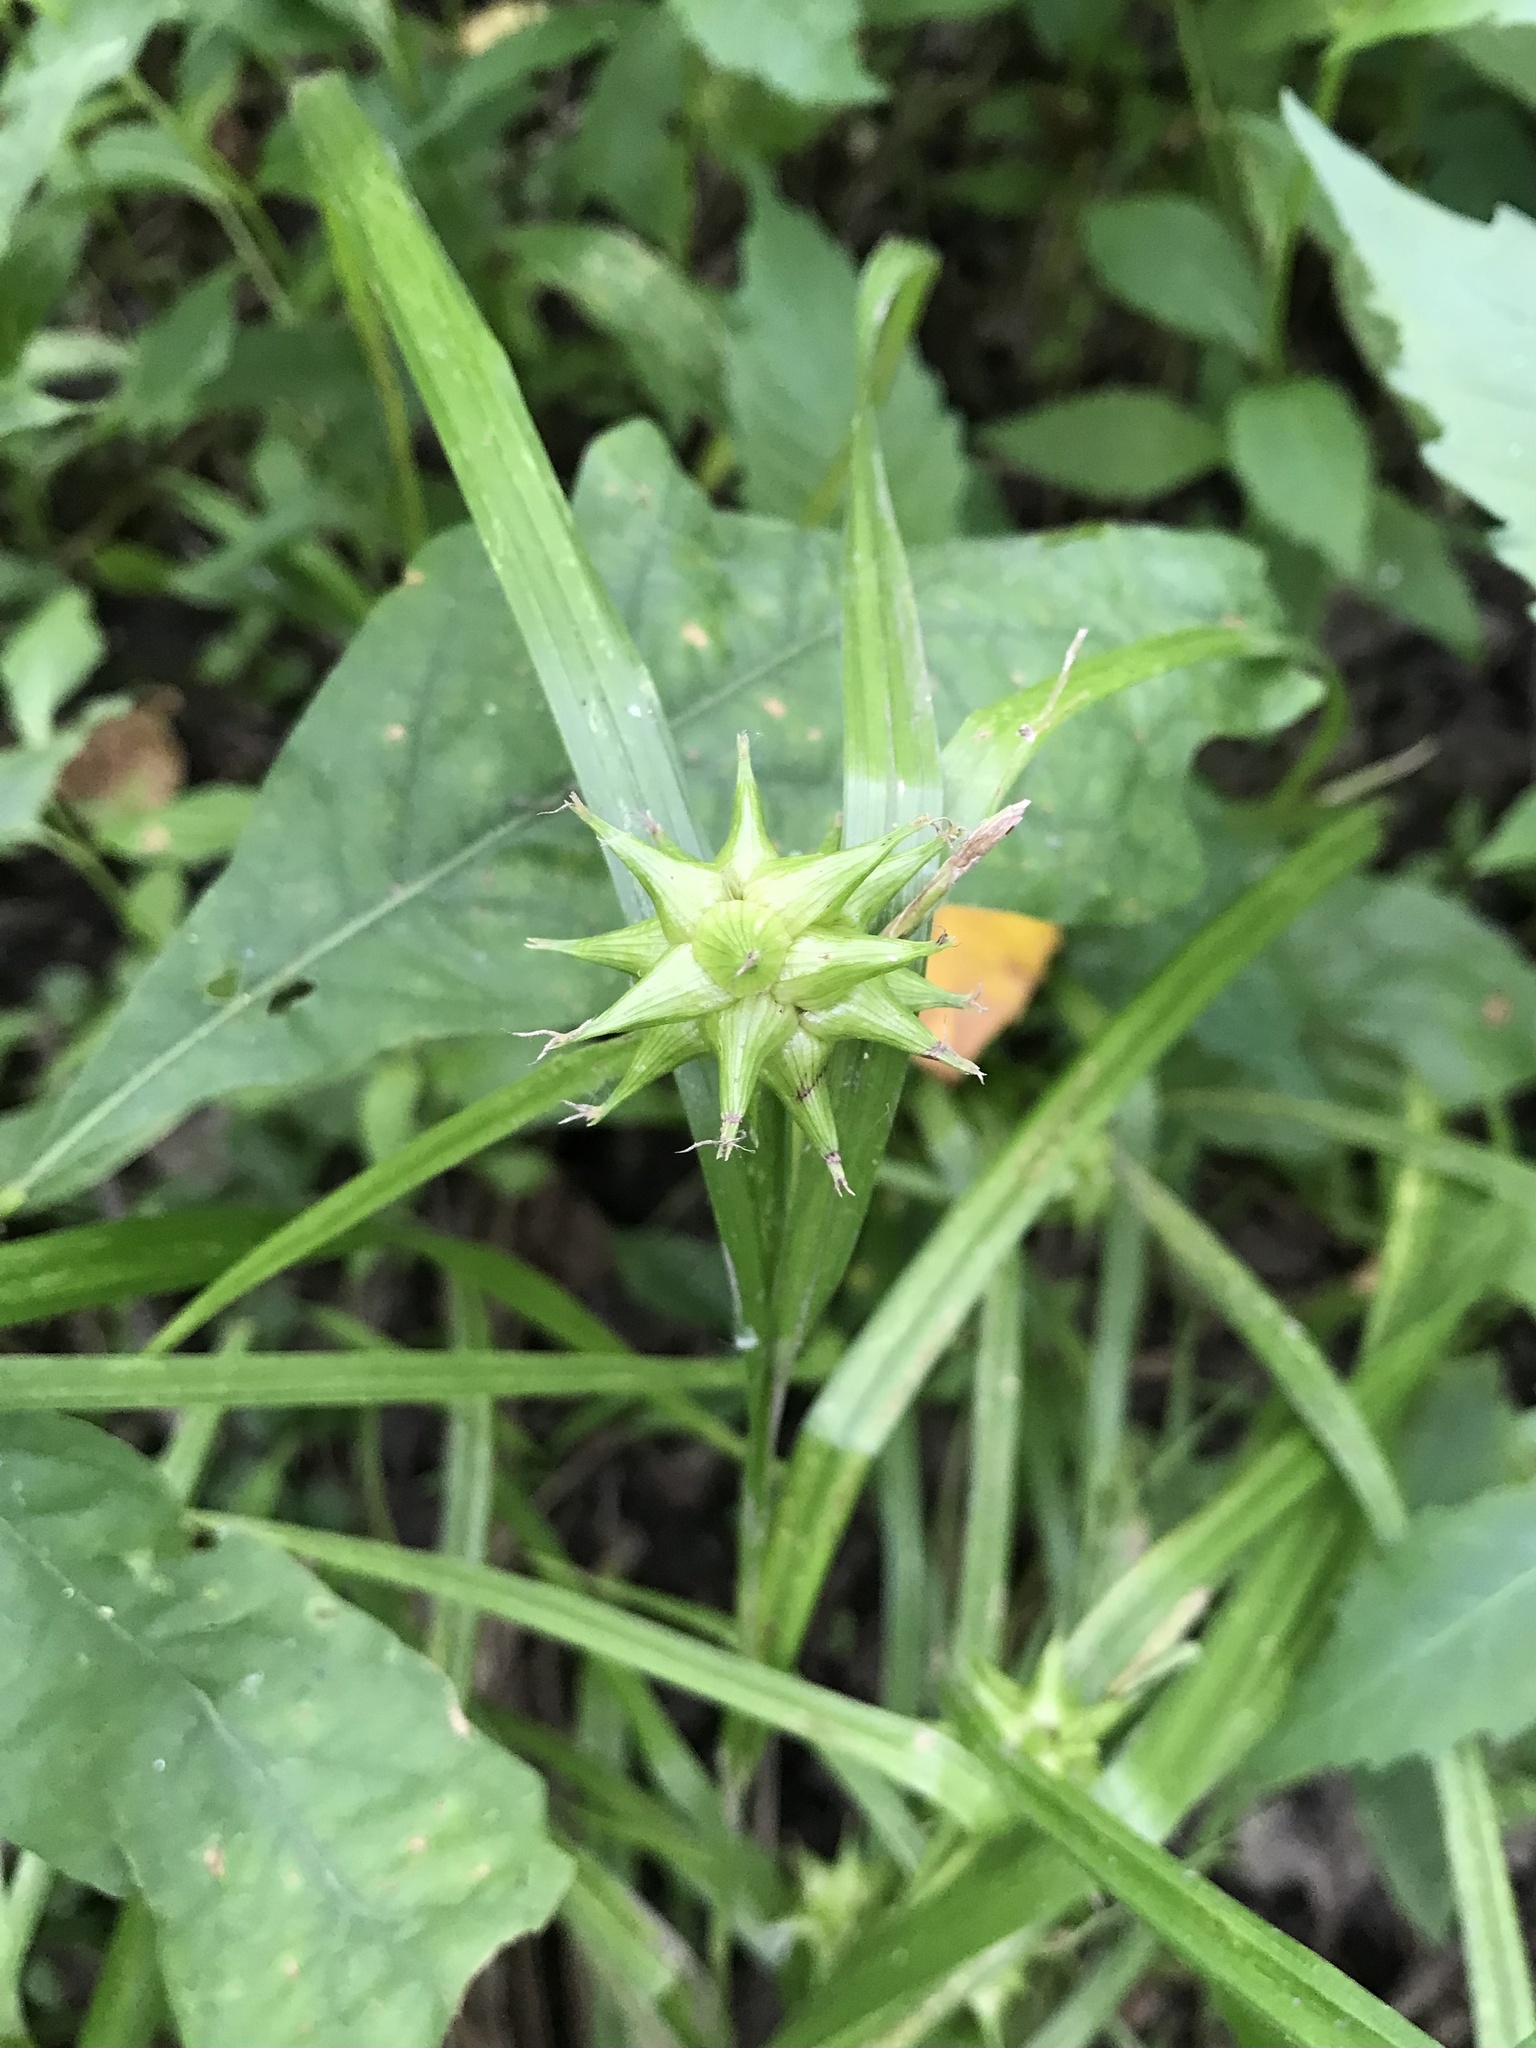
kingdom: Plantae
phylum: Tracheophyta
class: Liliopsida
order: Poales
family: Cyperaceae
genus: Carex
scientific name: Carex grayi
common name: Asa gray's sedge
